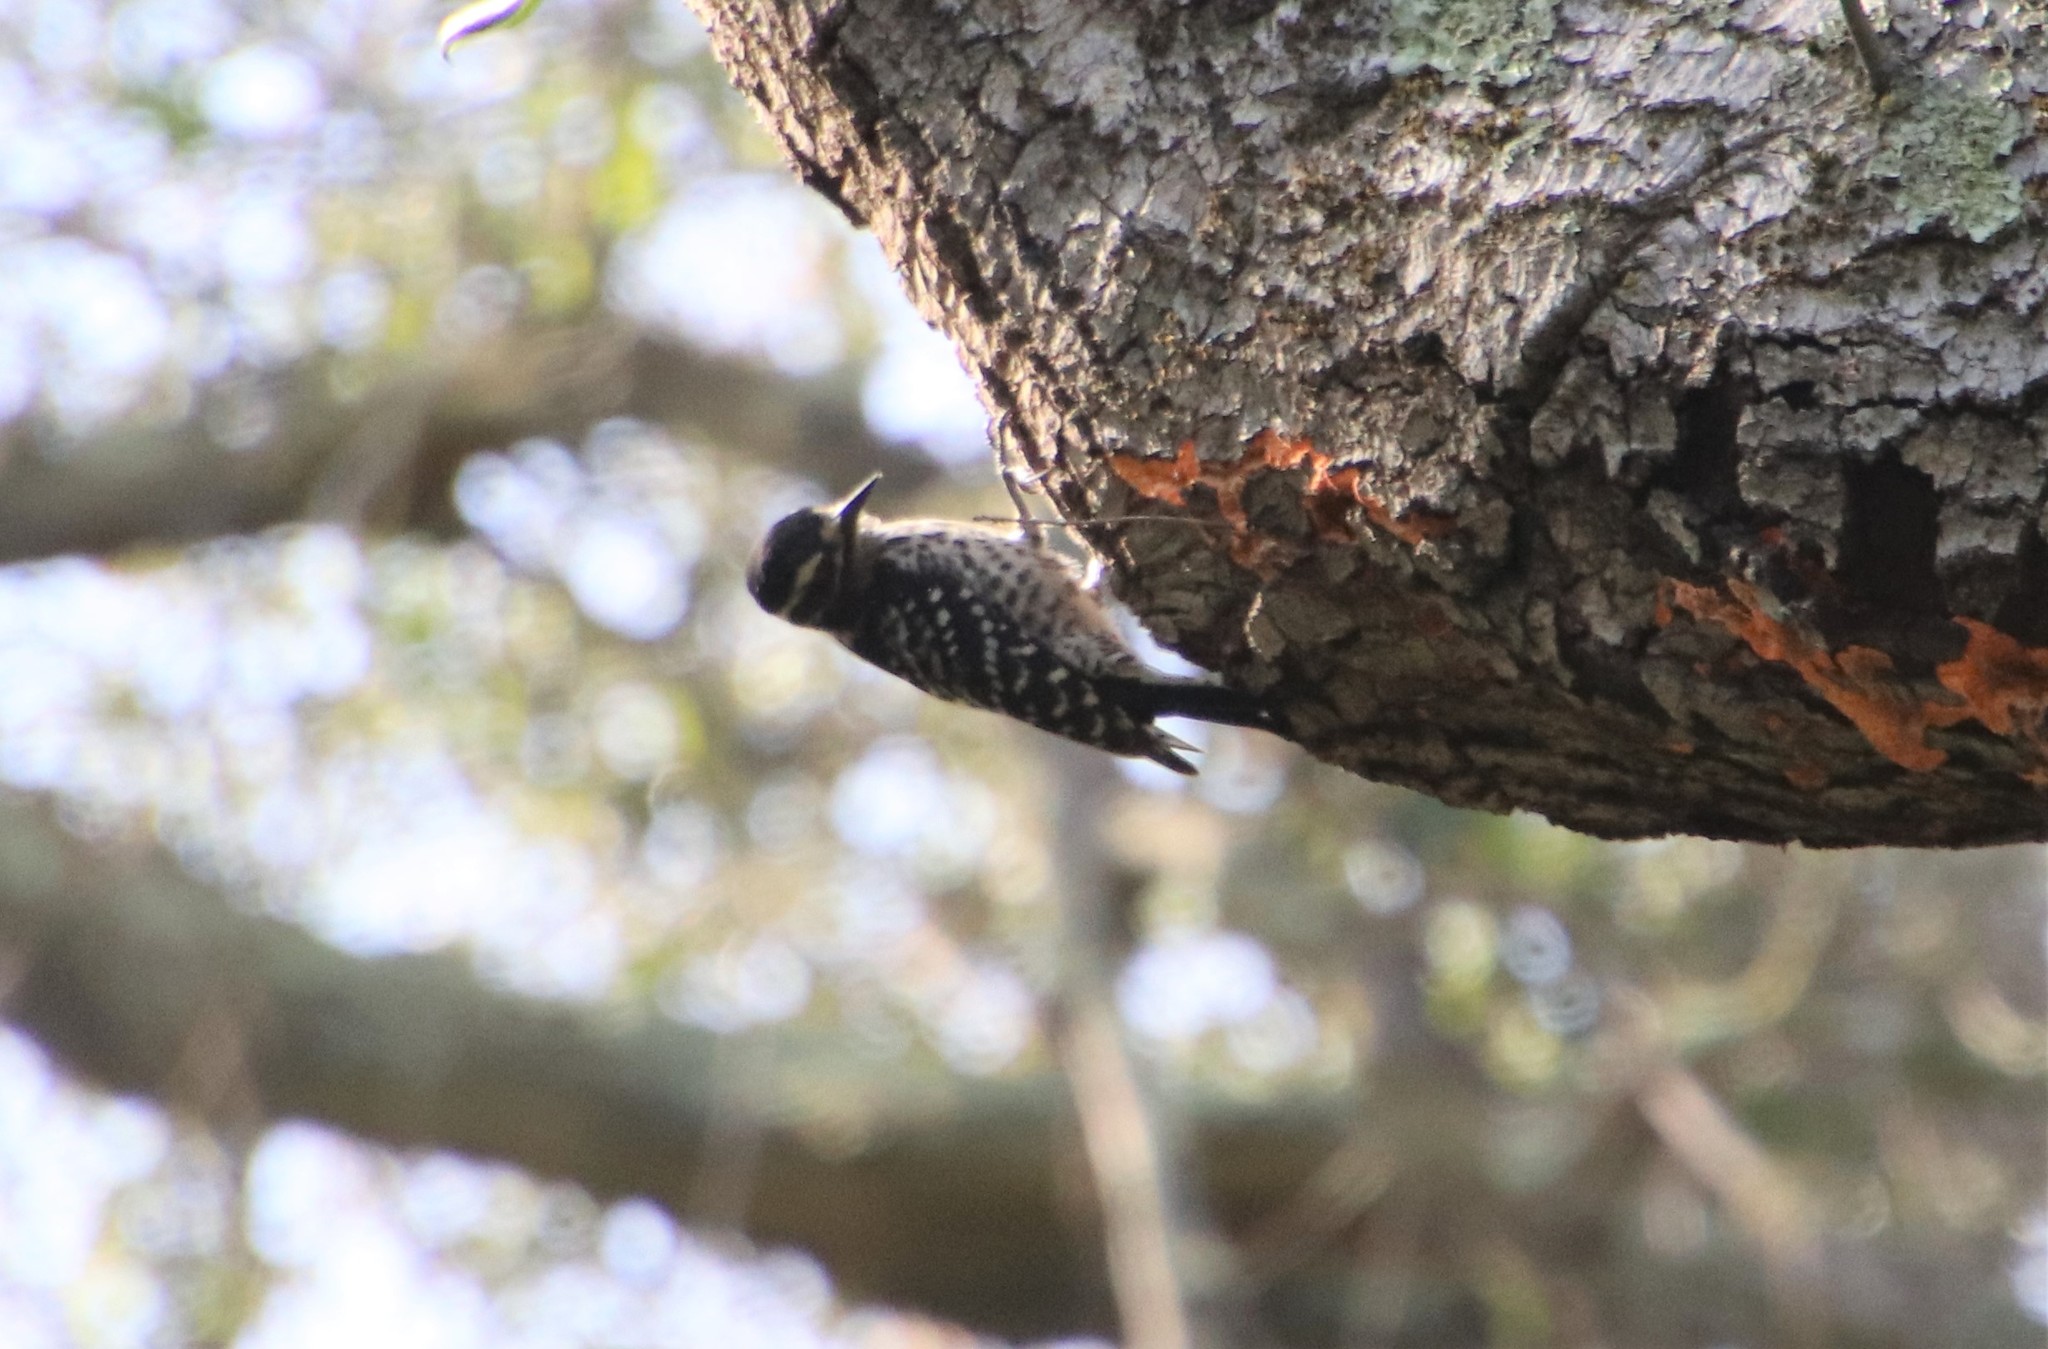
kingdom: Animalia
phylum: Chordata
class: Aves
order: Piciformes
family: Picidae
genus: Dryobates
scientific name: Dryobates nuttallii
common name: Nuttall's woodpecker
